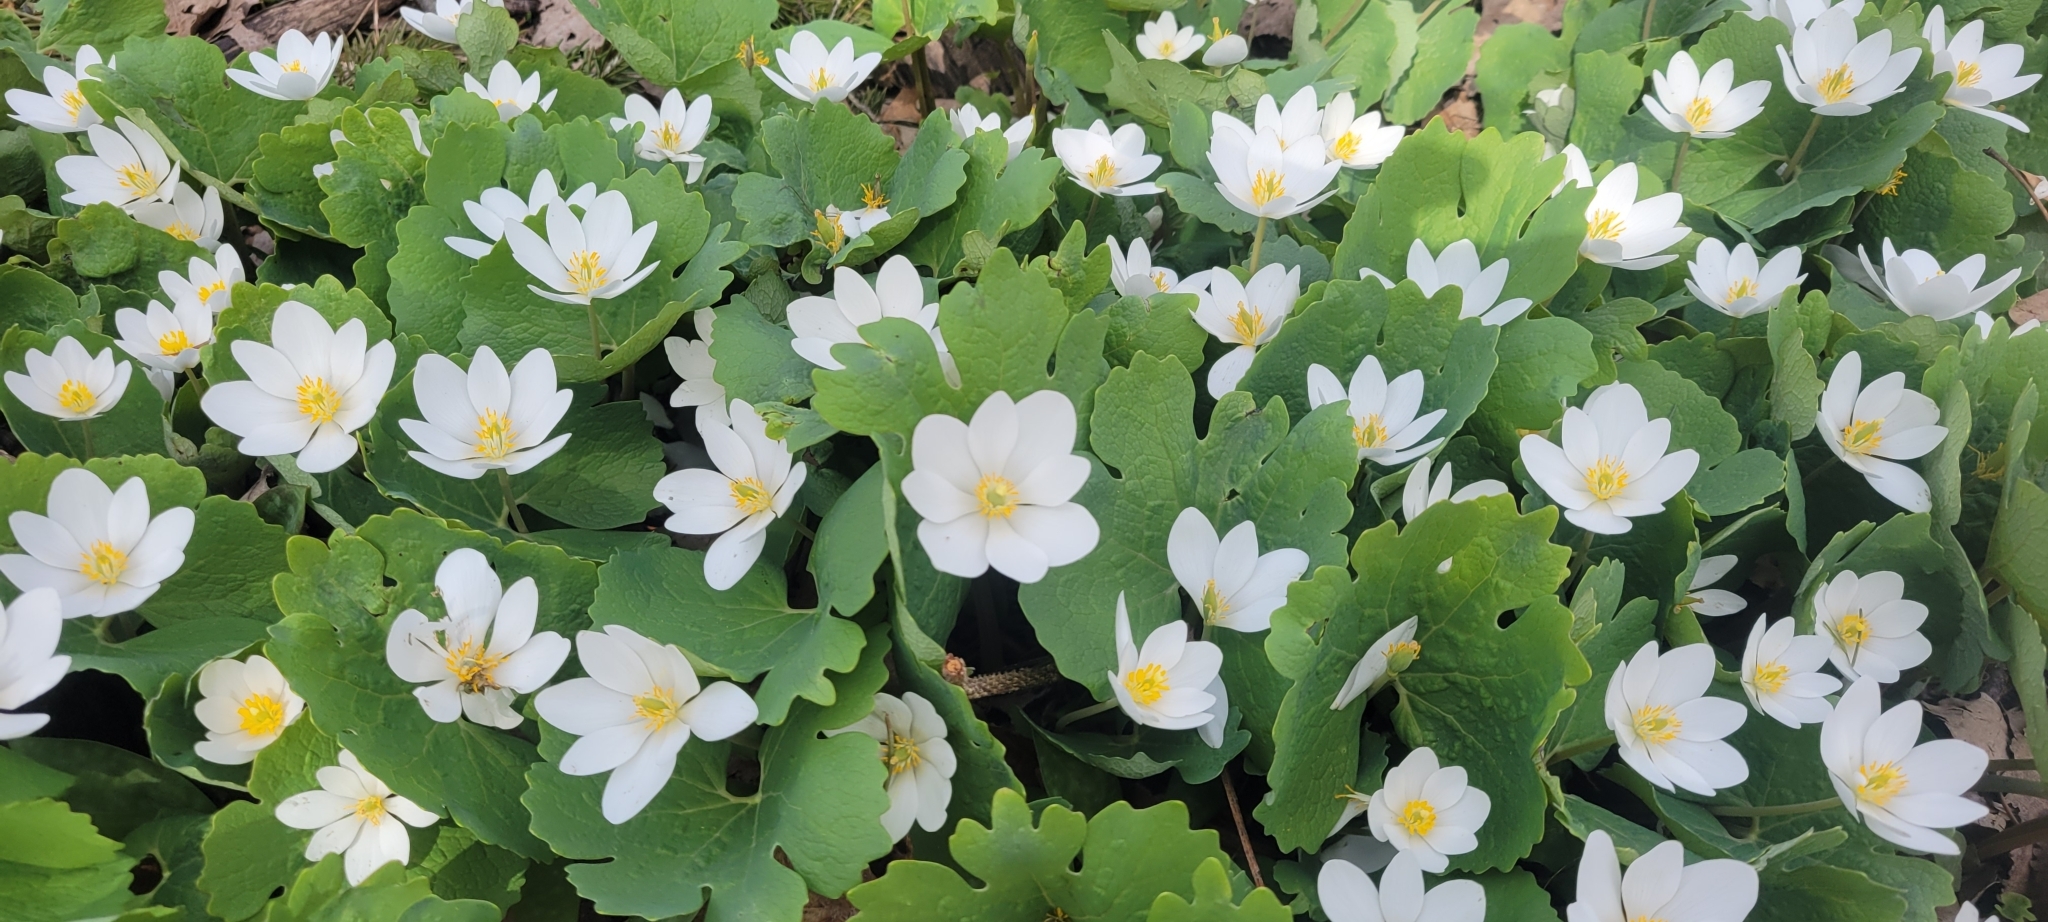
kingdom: Plantae
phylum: Tracheophyta
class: Magnoliopsida
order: Ranunculales
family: Papaveraceae
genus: Sanguinaria
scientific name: Sanguinaria canadensis
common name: Bloodroot
